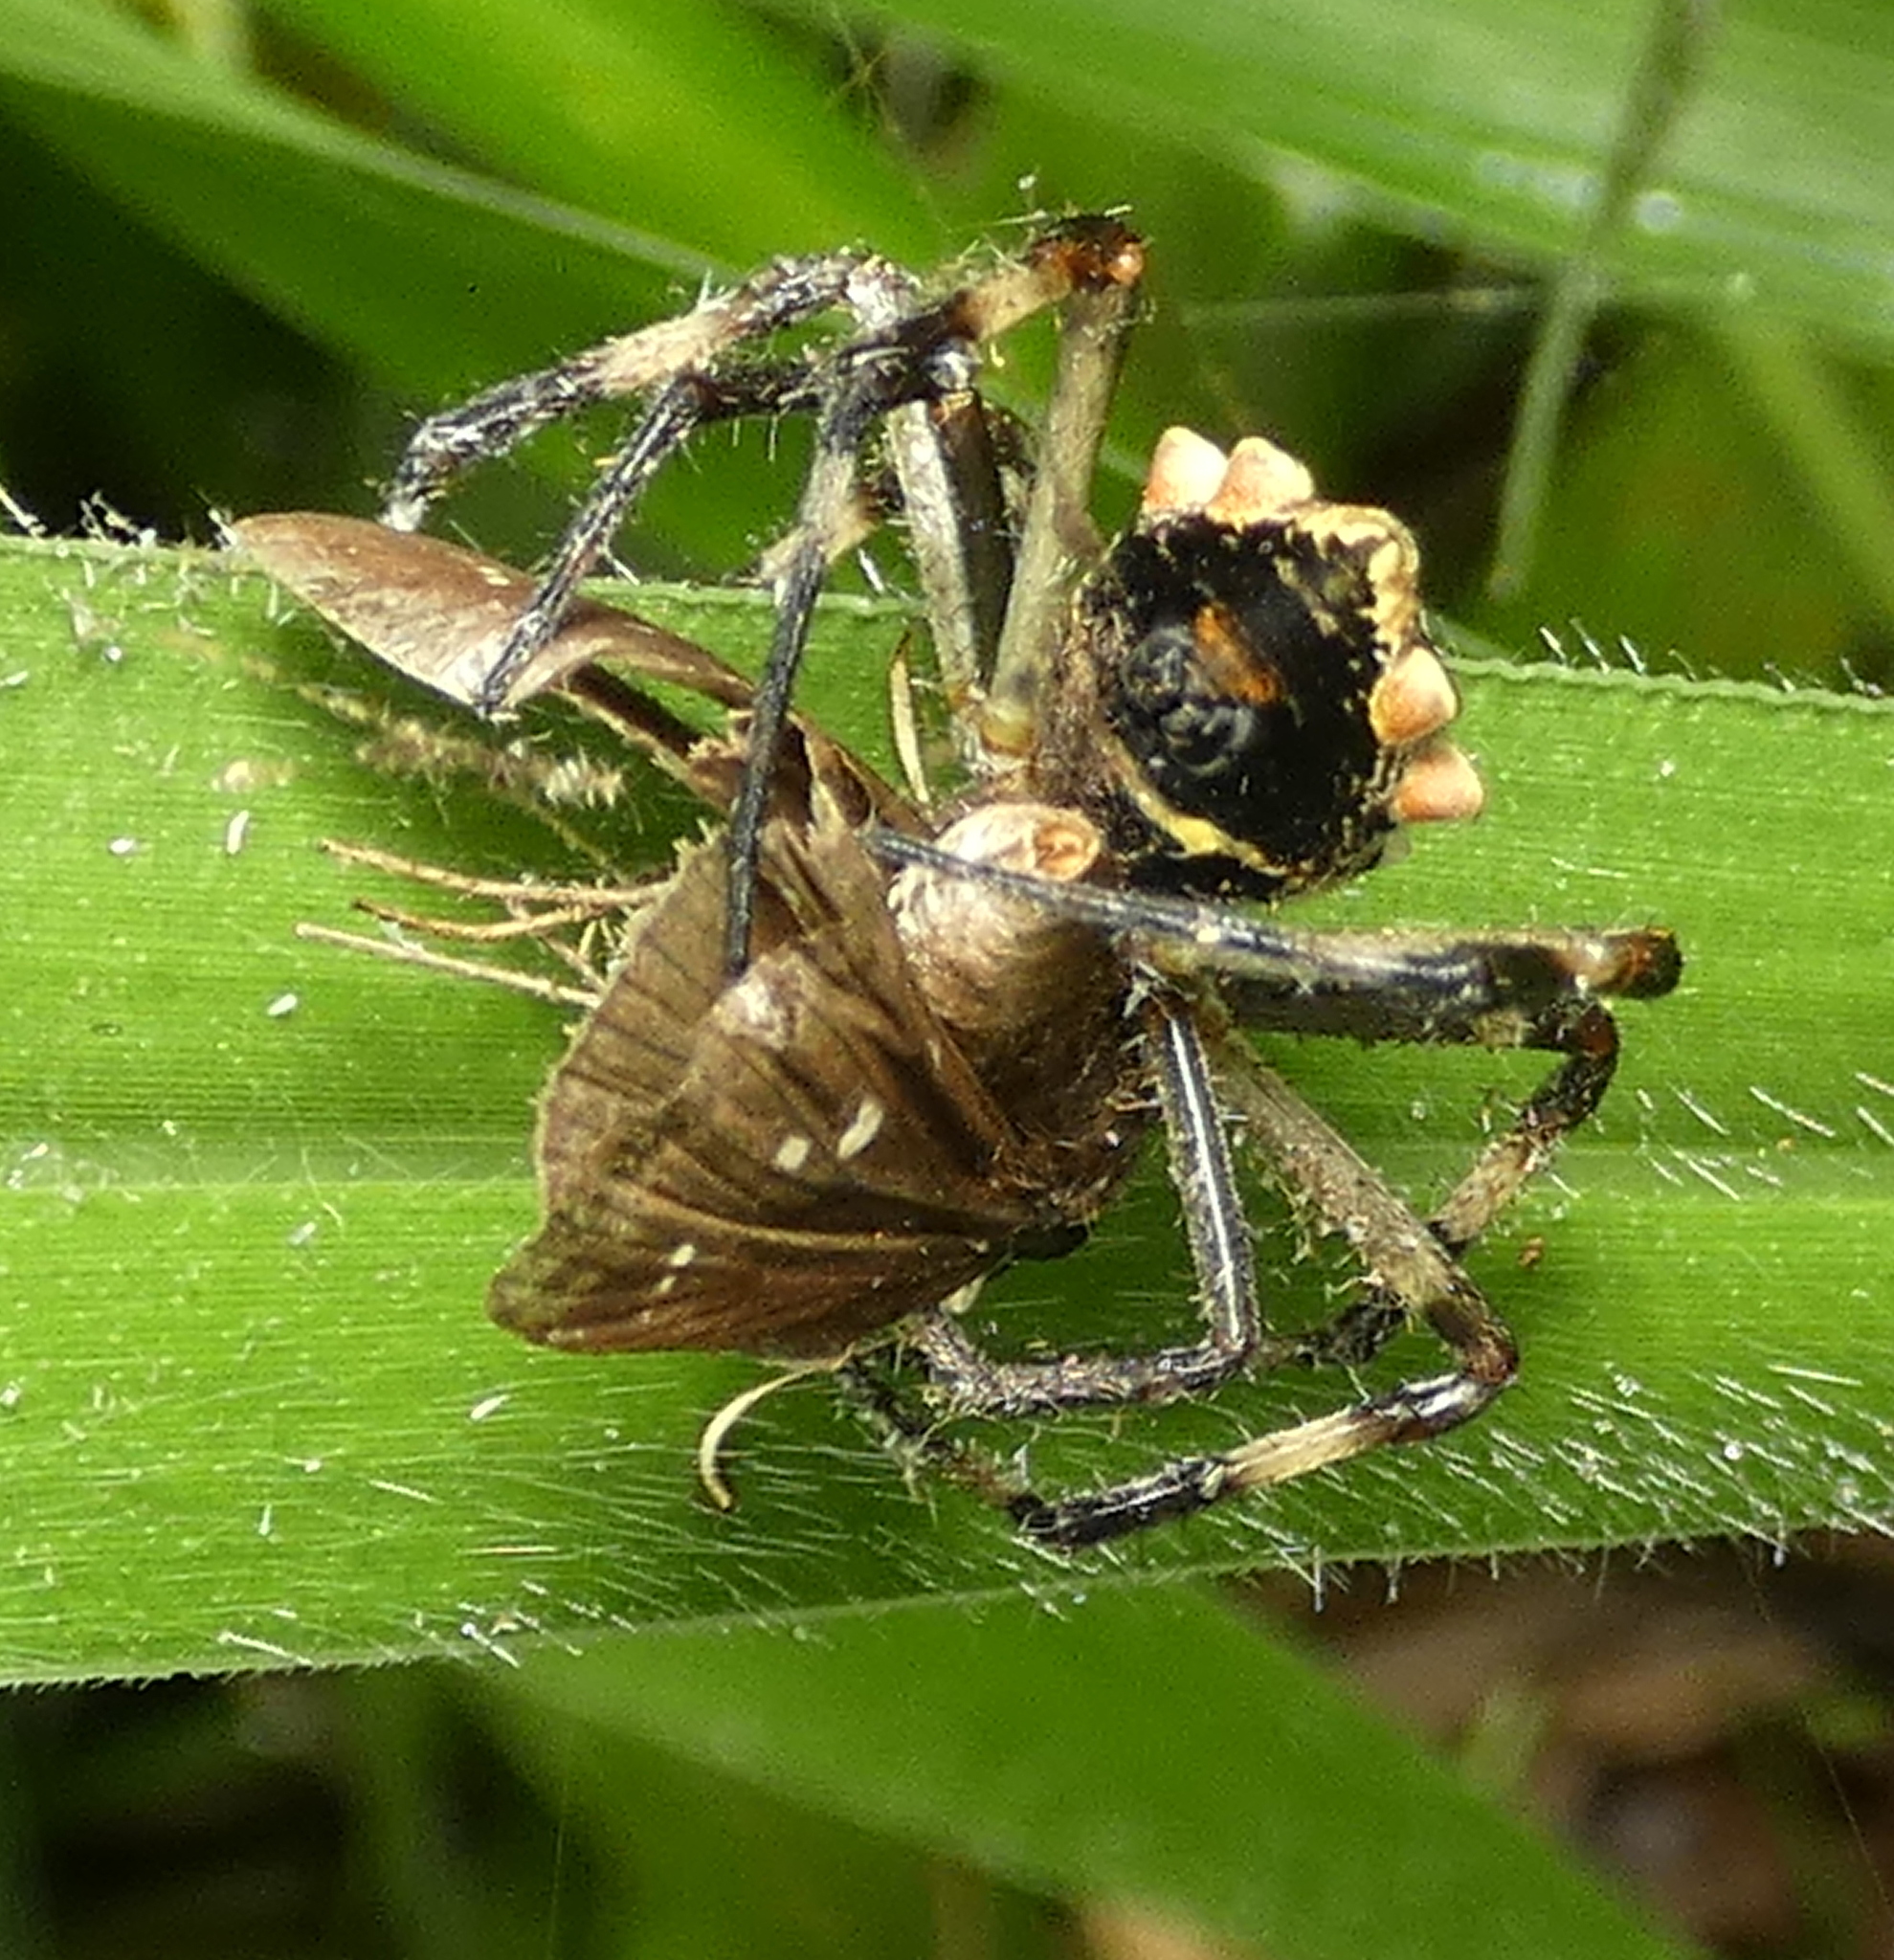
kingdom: Animalia
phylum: Arthropoda
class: Arachnida
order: Araneae
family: Araneidae
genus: Argiope
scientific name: Argiope argentata
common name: Orb weavers
